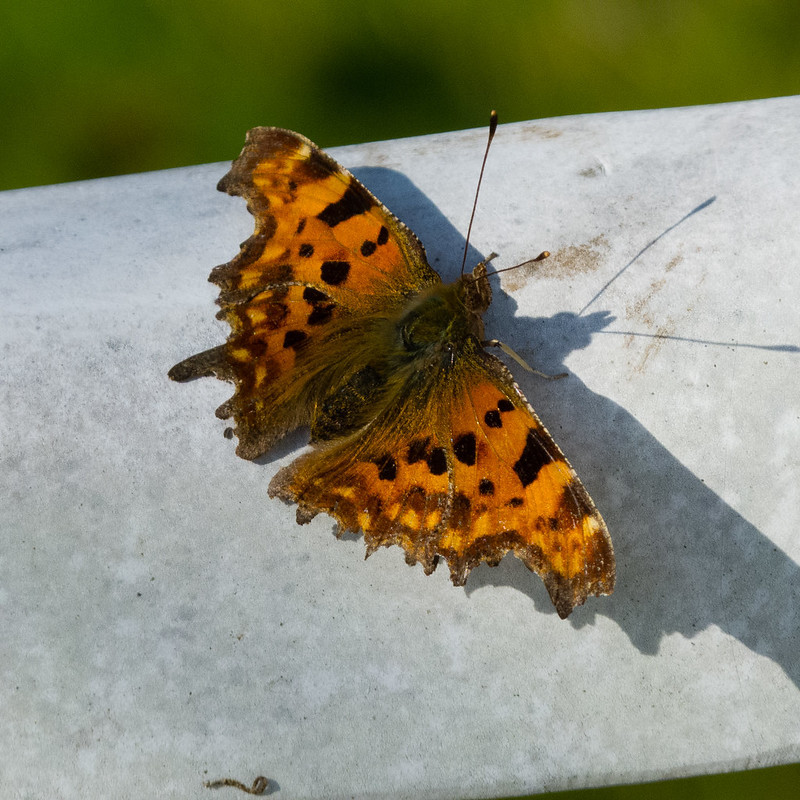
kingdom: Animalia
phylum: Arthropoda
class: Insecta
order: Lepidoptera
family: Nymphalidae
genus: Polygonia
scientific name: Polygonia c-album
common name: Comma
